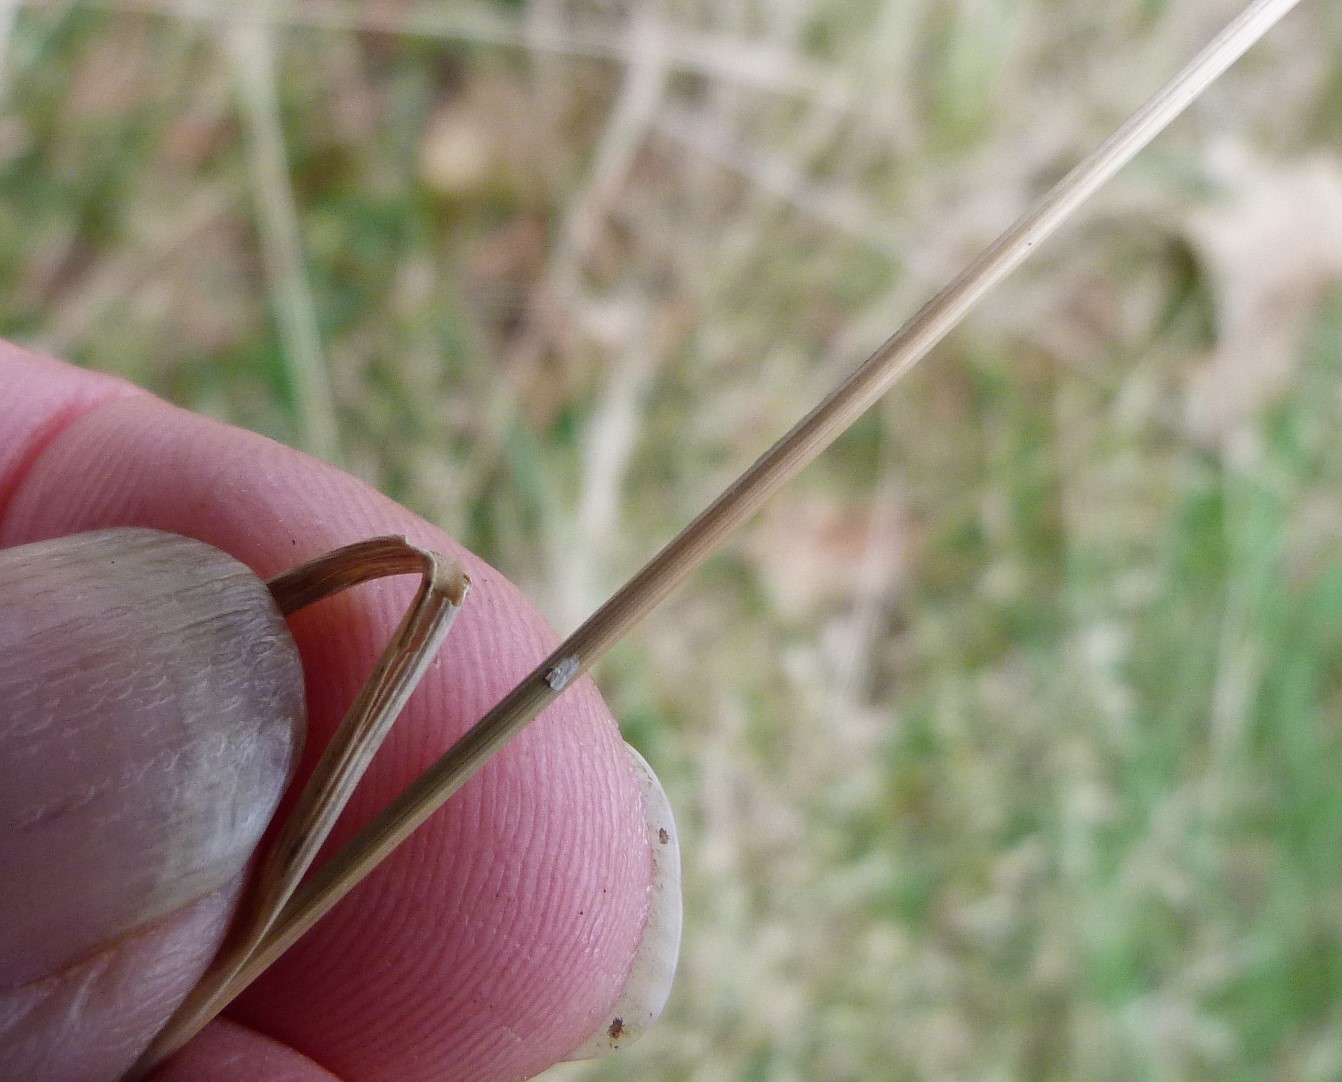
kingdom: Plantae
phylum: Tracheophyta
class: Liliopsida
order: Poales
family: Poaceae
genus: Agrostis
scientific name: Agrostis capillaris
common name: Colonial bentgrass
